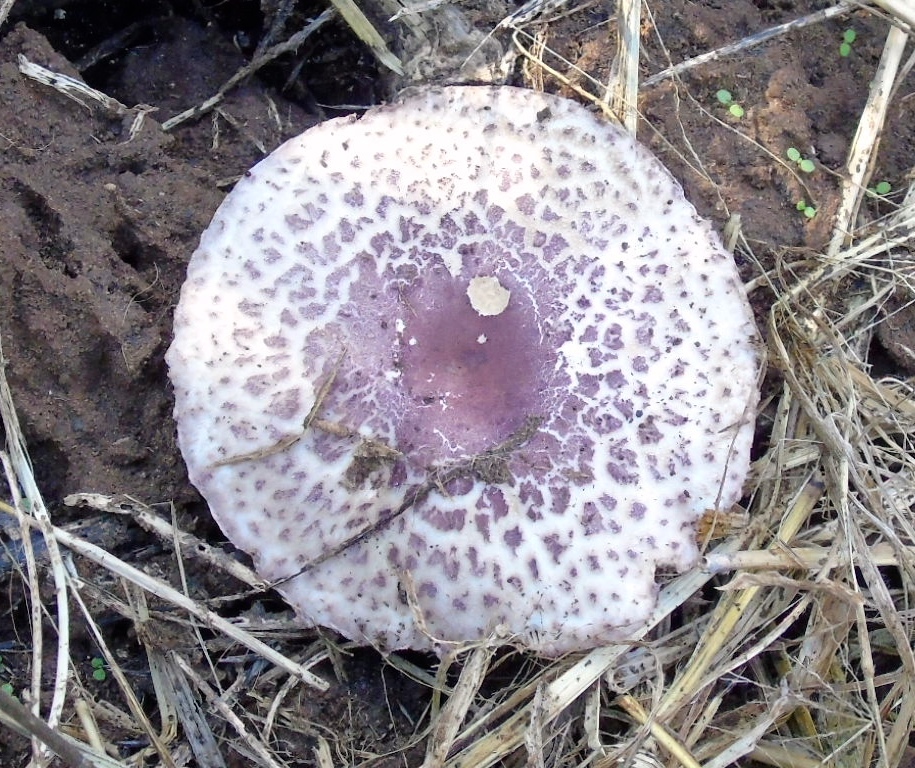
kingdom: Fungi
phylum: Basidiomycota
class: Agaricomycetes
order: Agaricales
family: Agaricaceae
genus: Leucoagaricus
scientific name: Leucoagaricus
